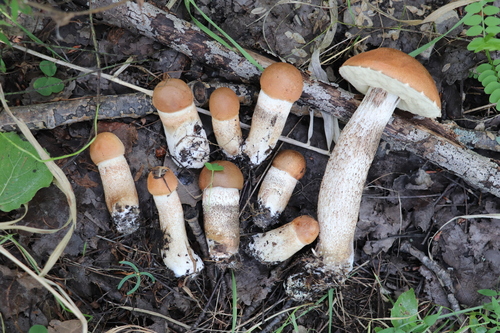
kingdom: Fungi
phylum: Basidiomycota
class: Agaricomycetes
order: Boletales
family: Boletaceae
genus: Leccinum
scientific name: Leccinum aurantiacum
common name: Orange bolete
